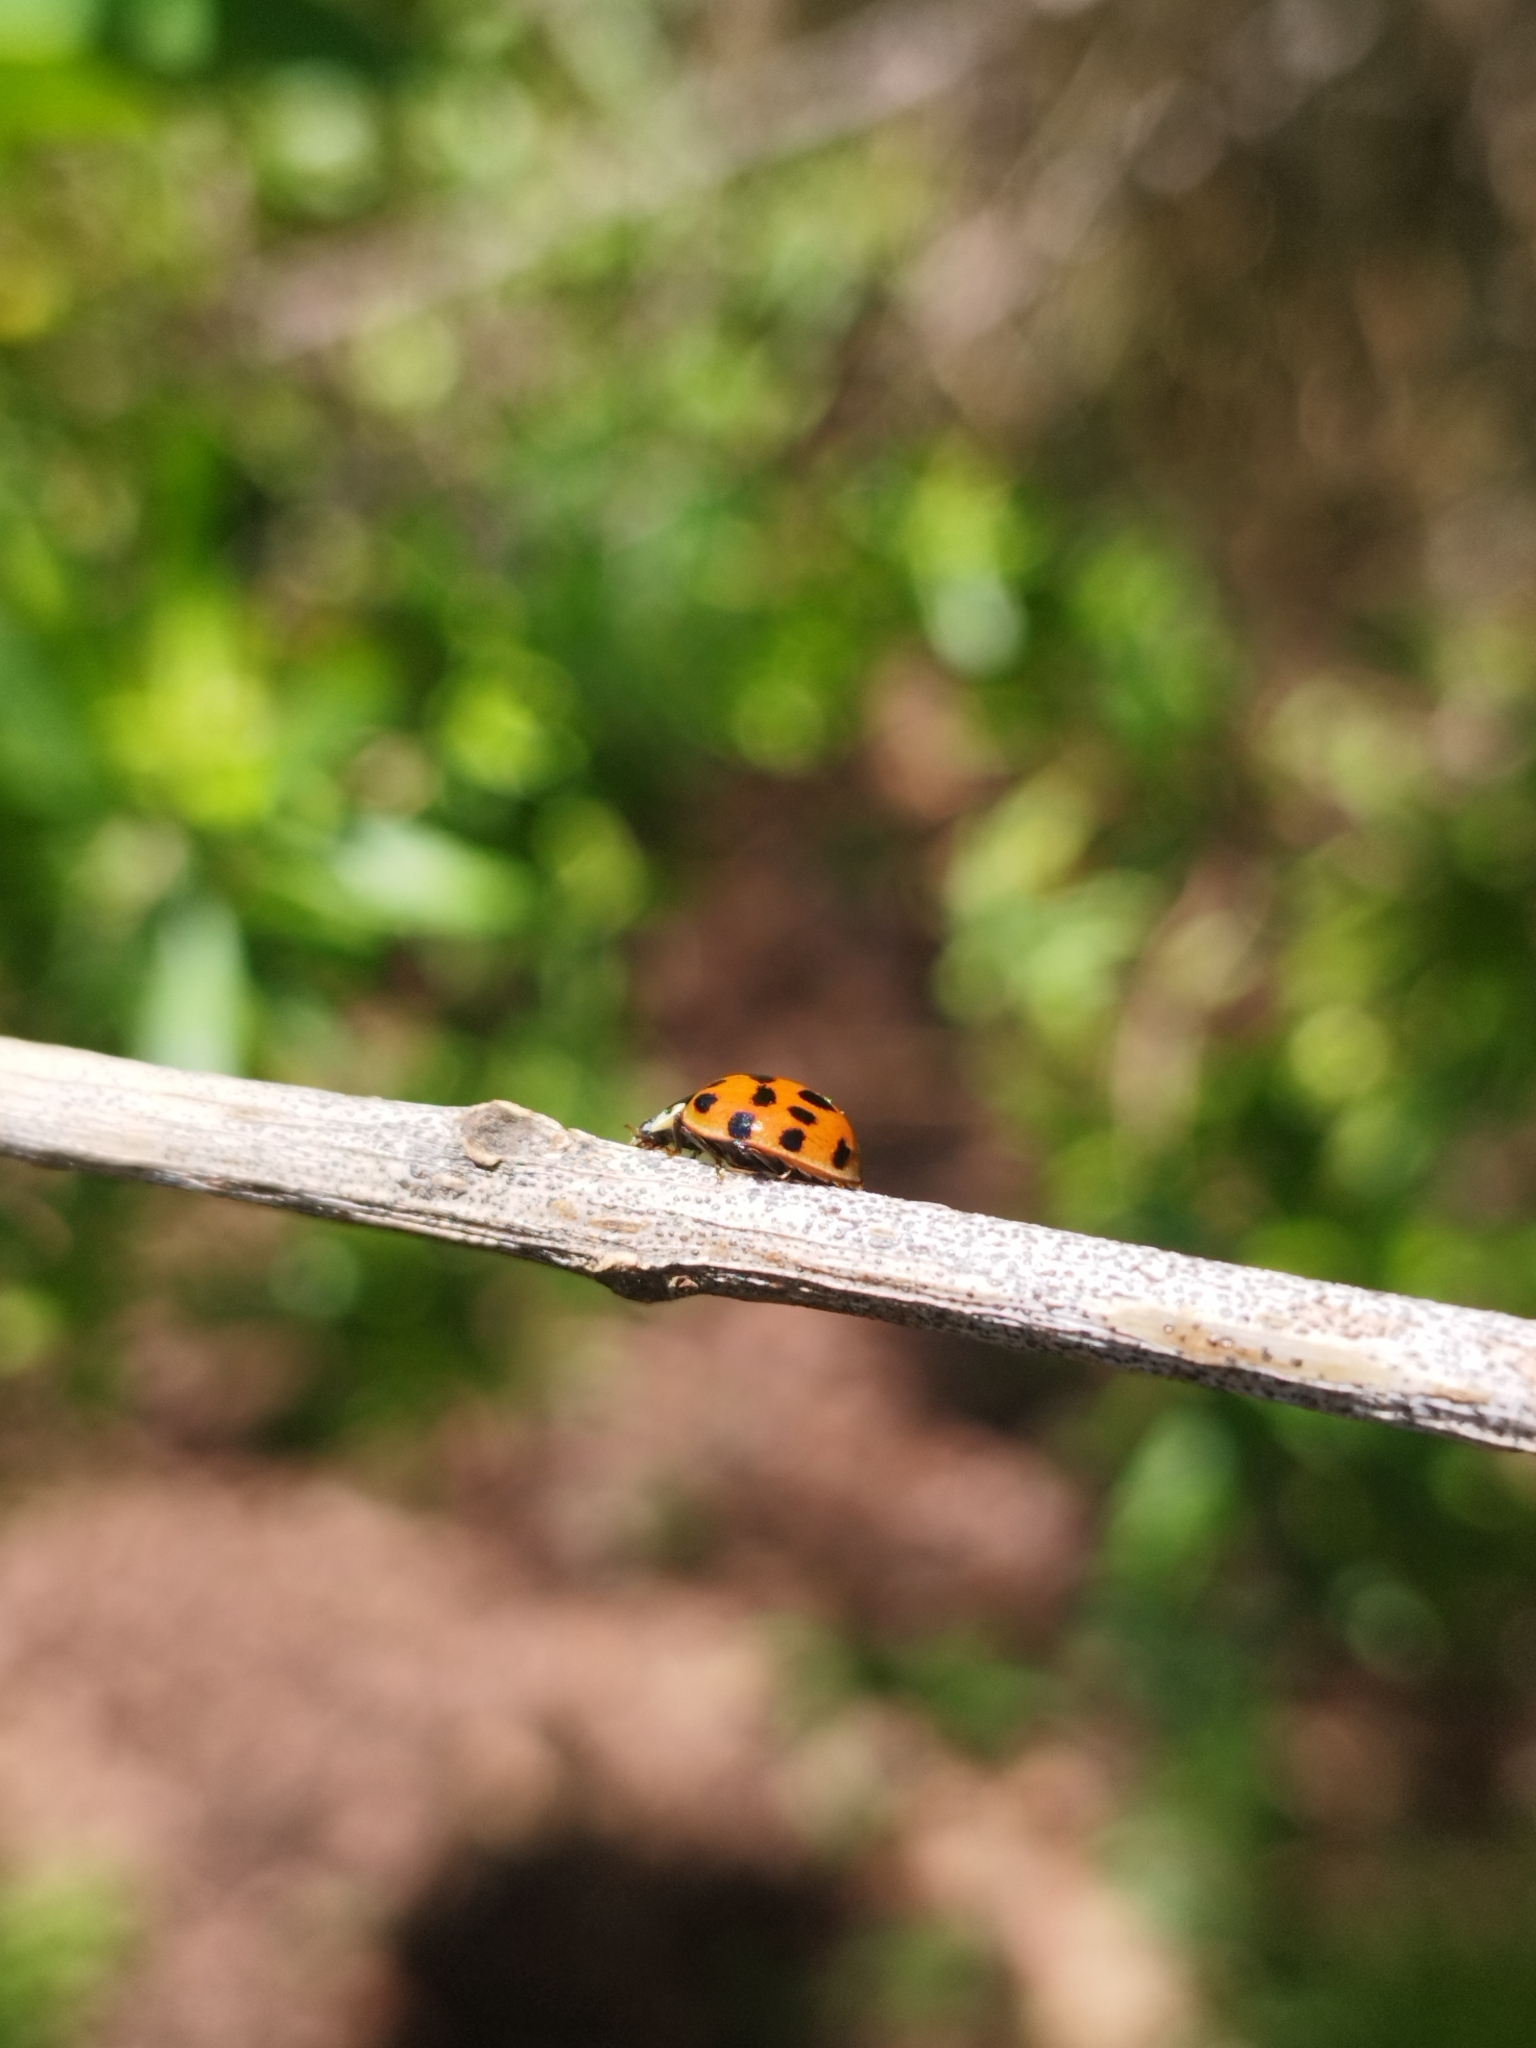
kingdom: Animalia
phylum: Arthropoda
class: Insecta
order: Coleoptera
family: Coccinellidae
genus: Harmonia
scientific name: Harmonia axyridis
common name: Harlequin ladybird
